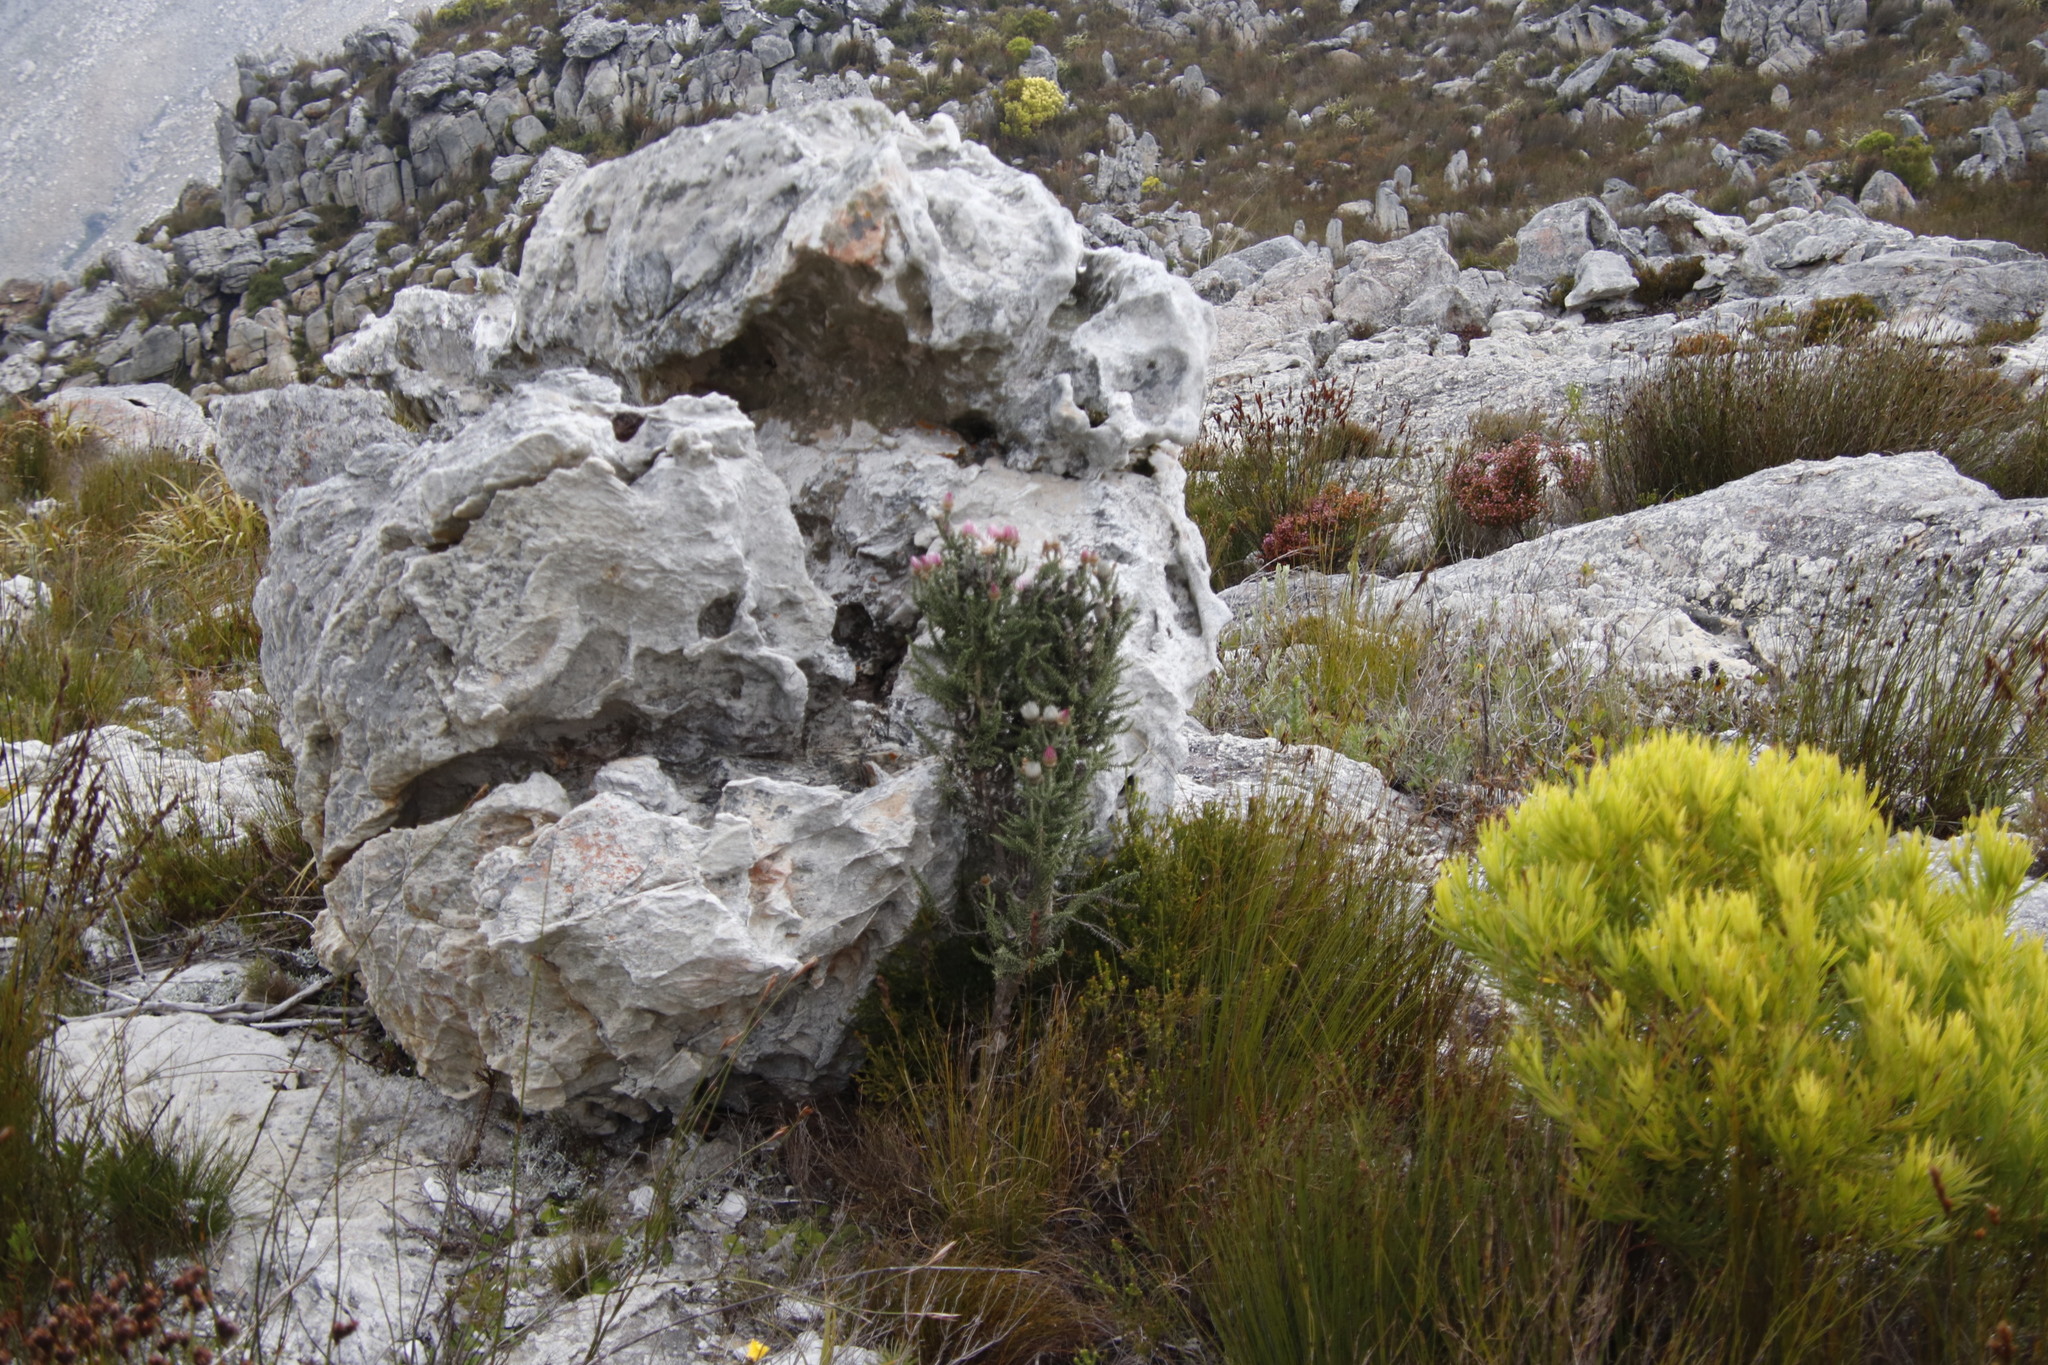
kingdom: Plantae
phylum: Tracheophyta
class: Magnoliopsida
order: Asterales
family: Asteraceae
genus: Phaenocoma
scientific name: Phaenocoma prolifera
